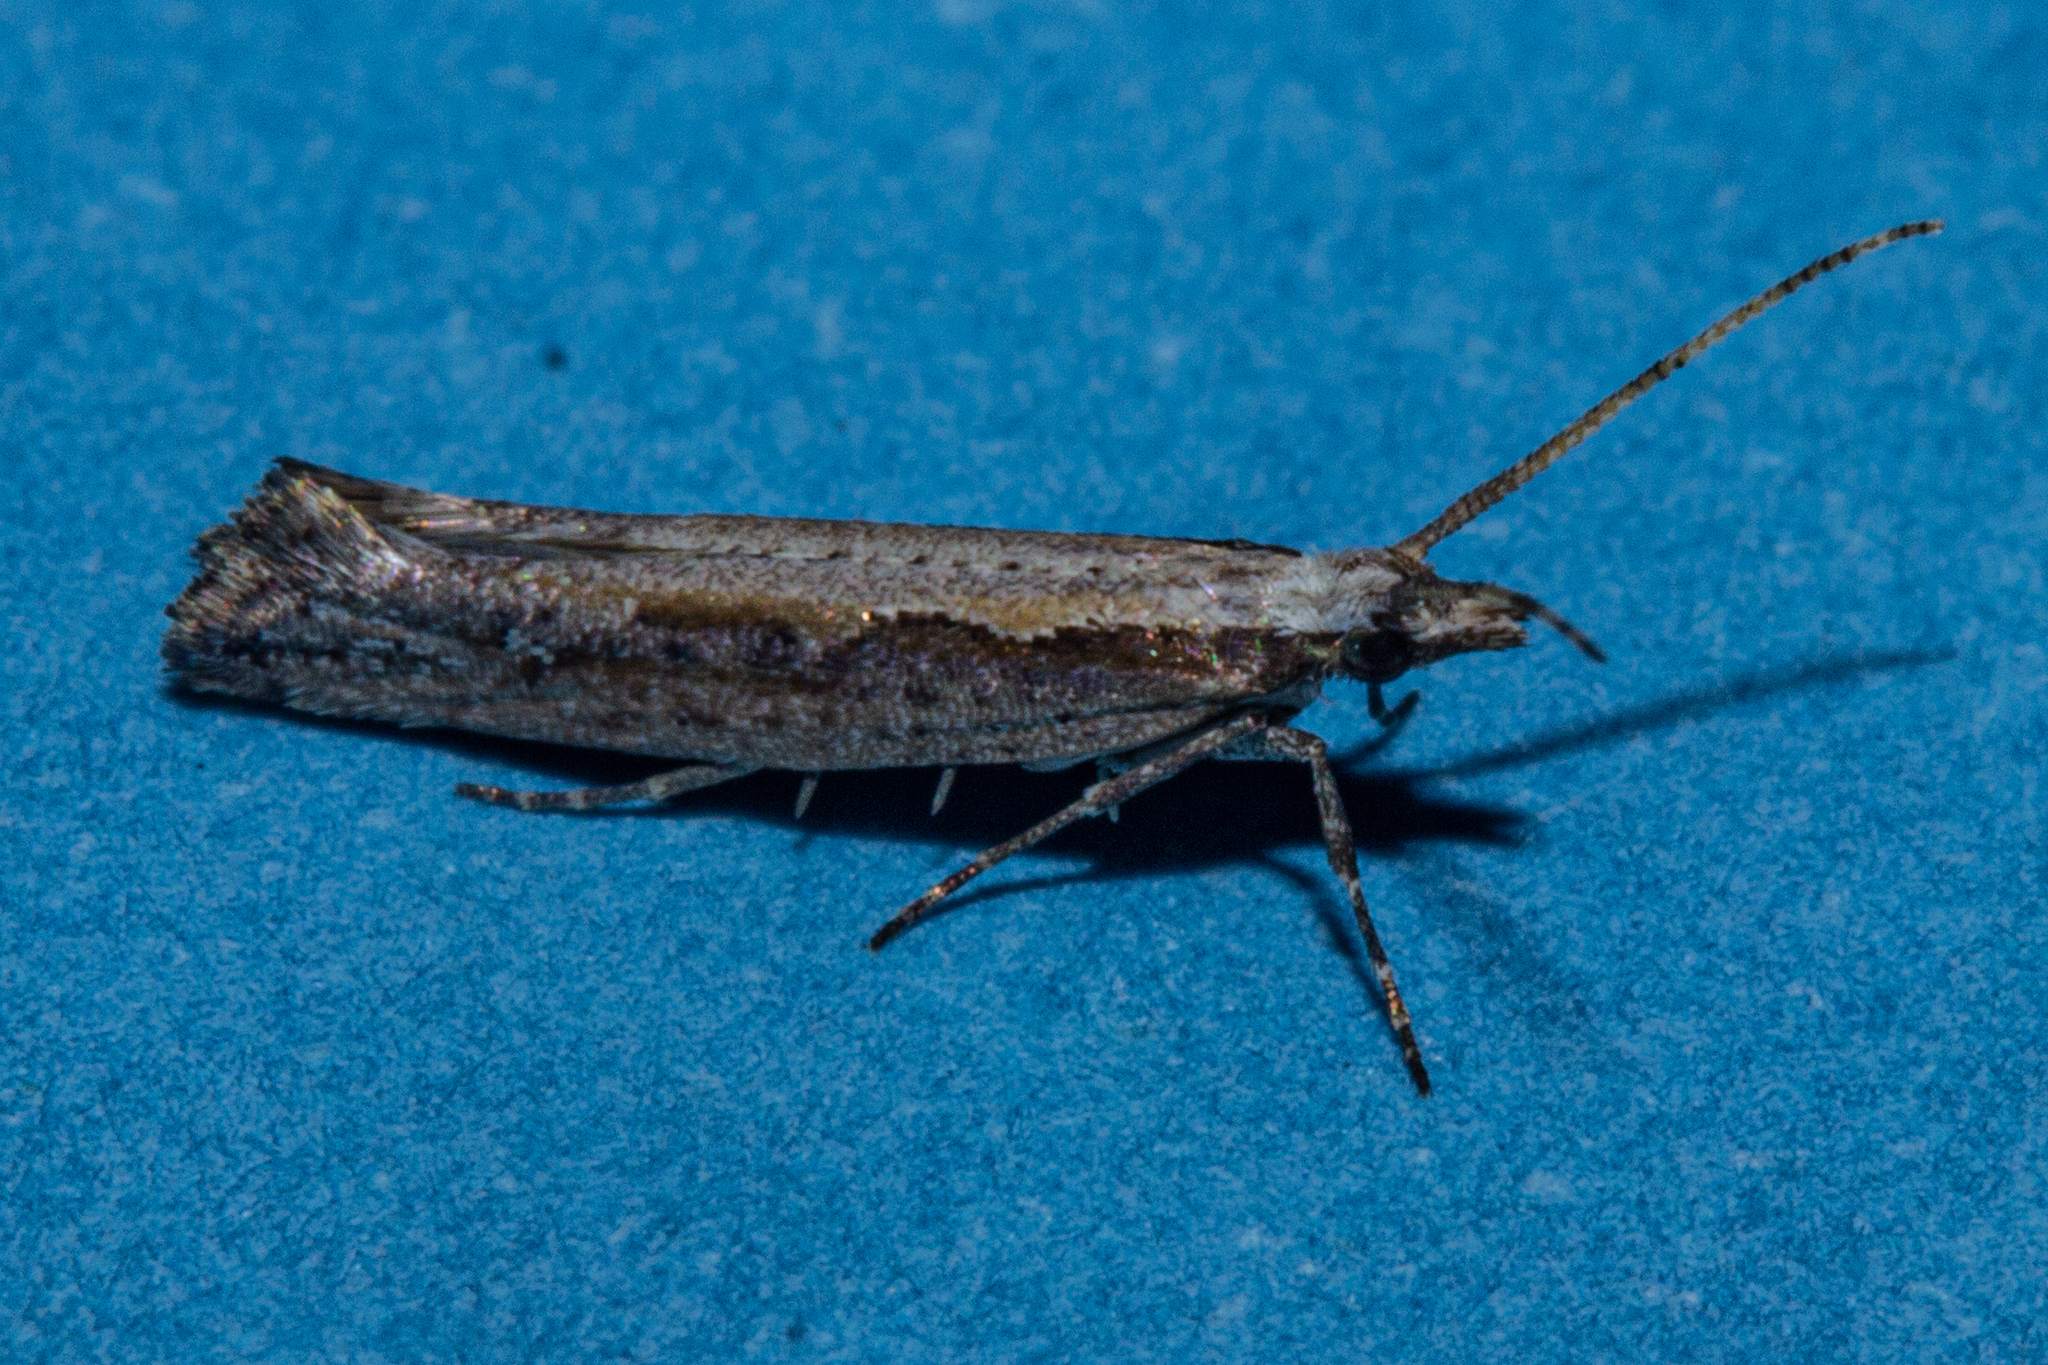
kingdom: Animalia
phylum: Arthropoda
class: Insecta
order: Lepidoptera
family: Plutellidae
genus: Plutella
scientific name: Plutella xylostella
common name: Diamond-back moth
